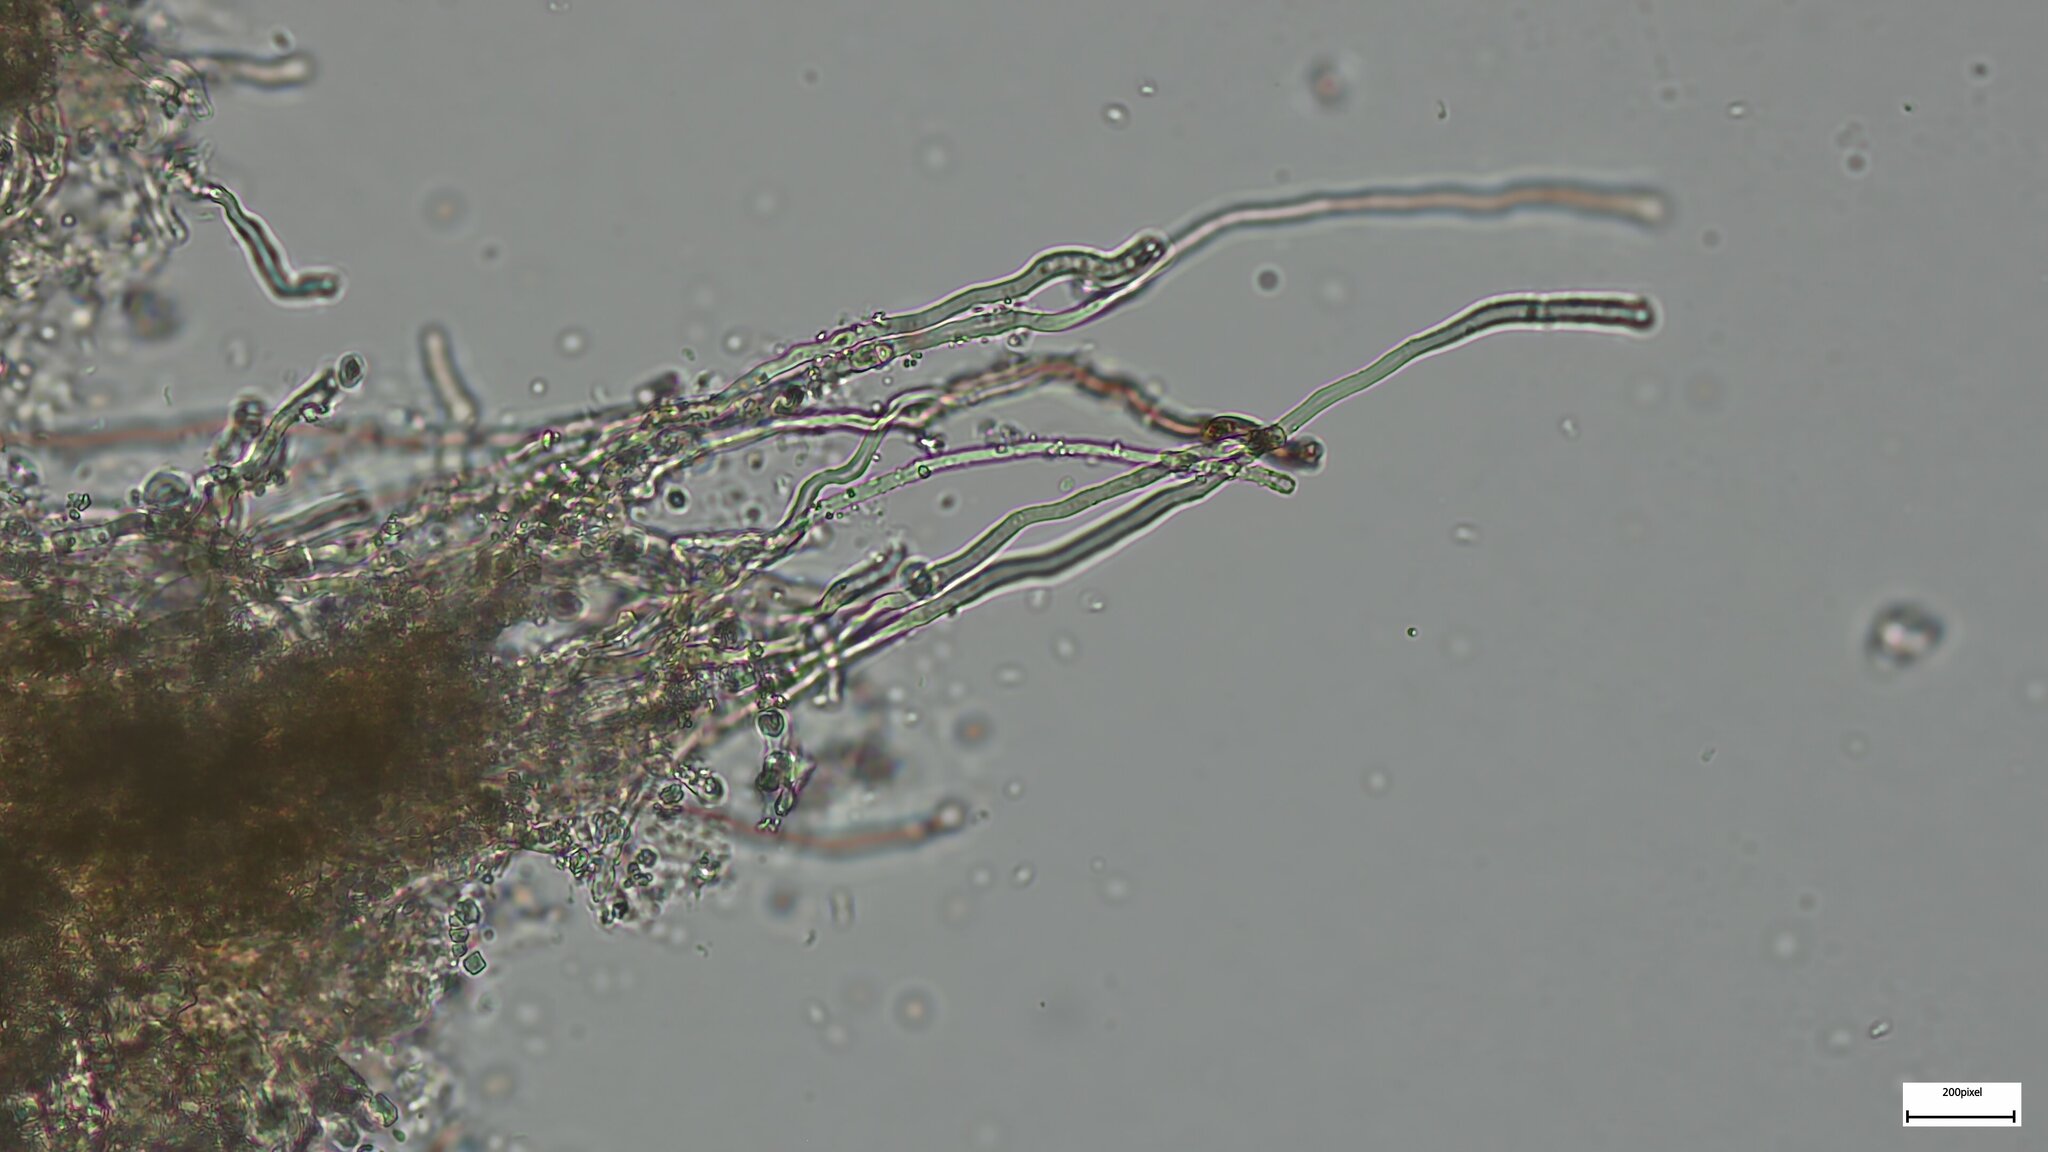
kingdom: Fungi
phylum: Basidiomycota
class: Agaricomycetes
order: Polyporales
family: Steccherinaceae
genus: Steccherinum
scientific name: Steccherinum fimbriatum
